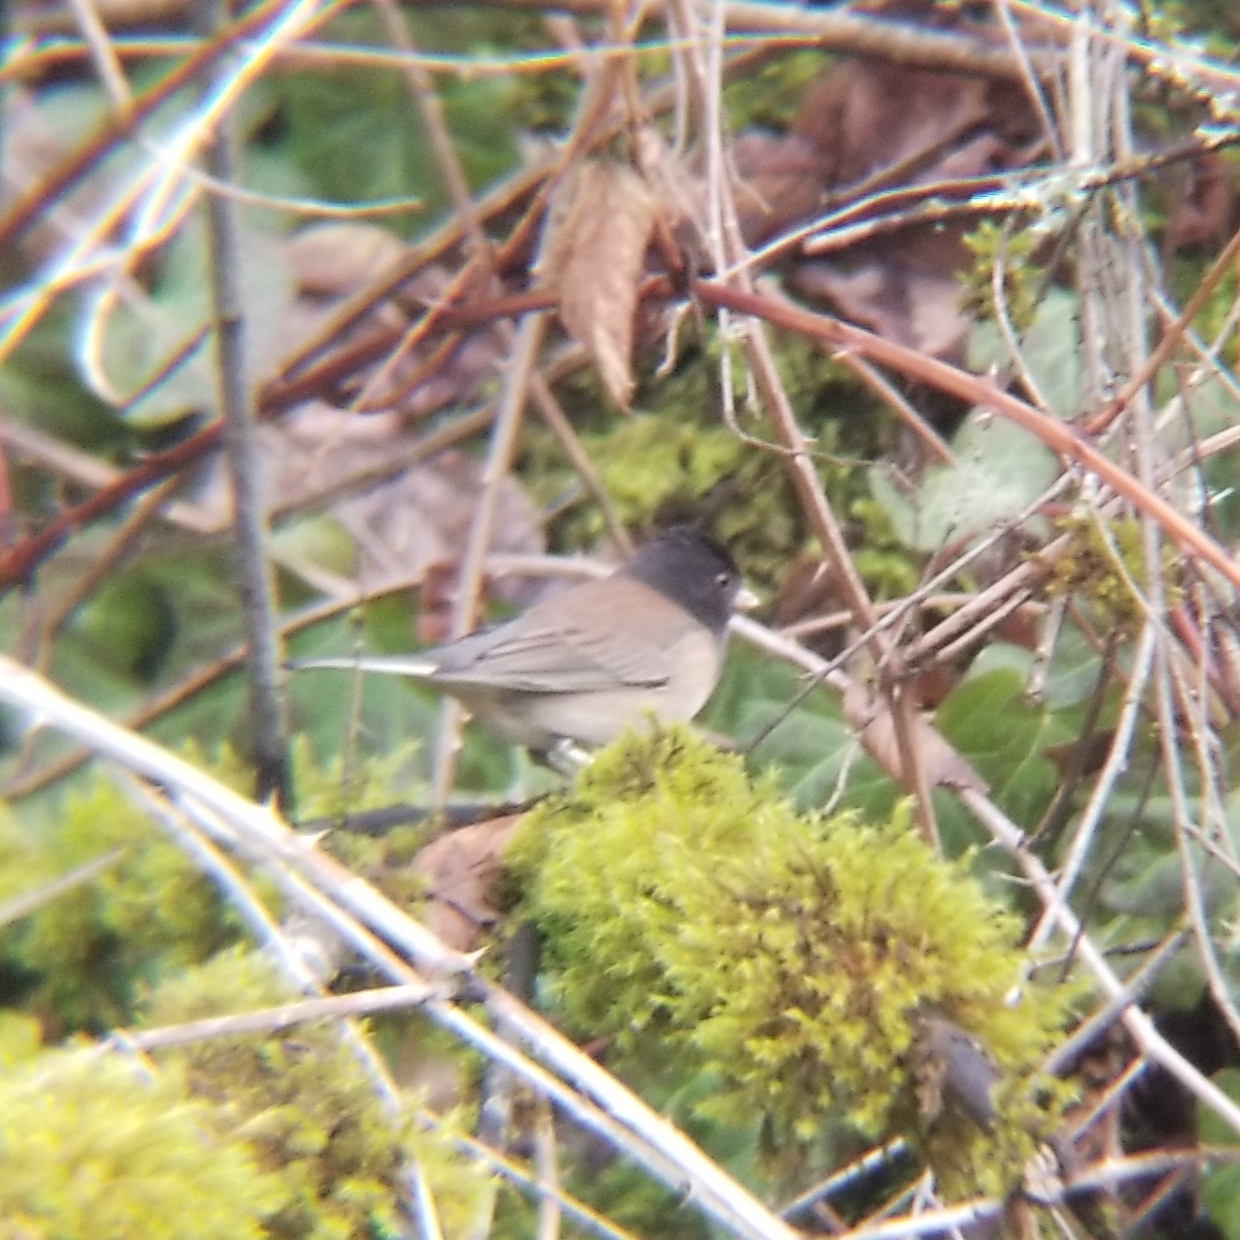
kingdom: Animalia
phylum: Chordata
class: Aves
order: Passeriformes
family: Passerellidae
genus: Junco
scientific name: Junco hyemalis
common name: Dark-eyed junco
